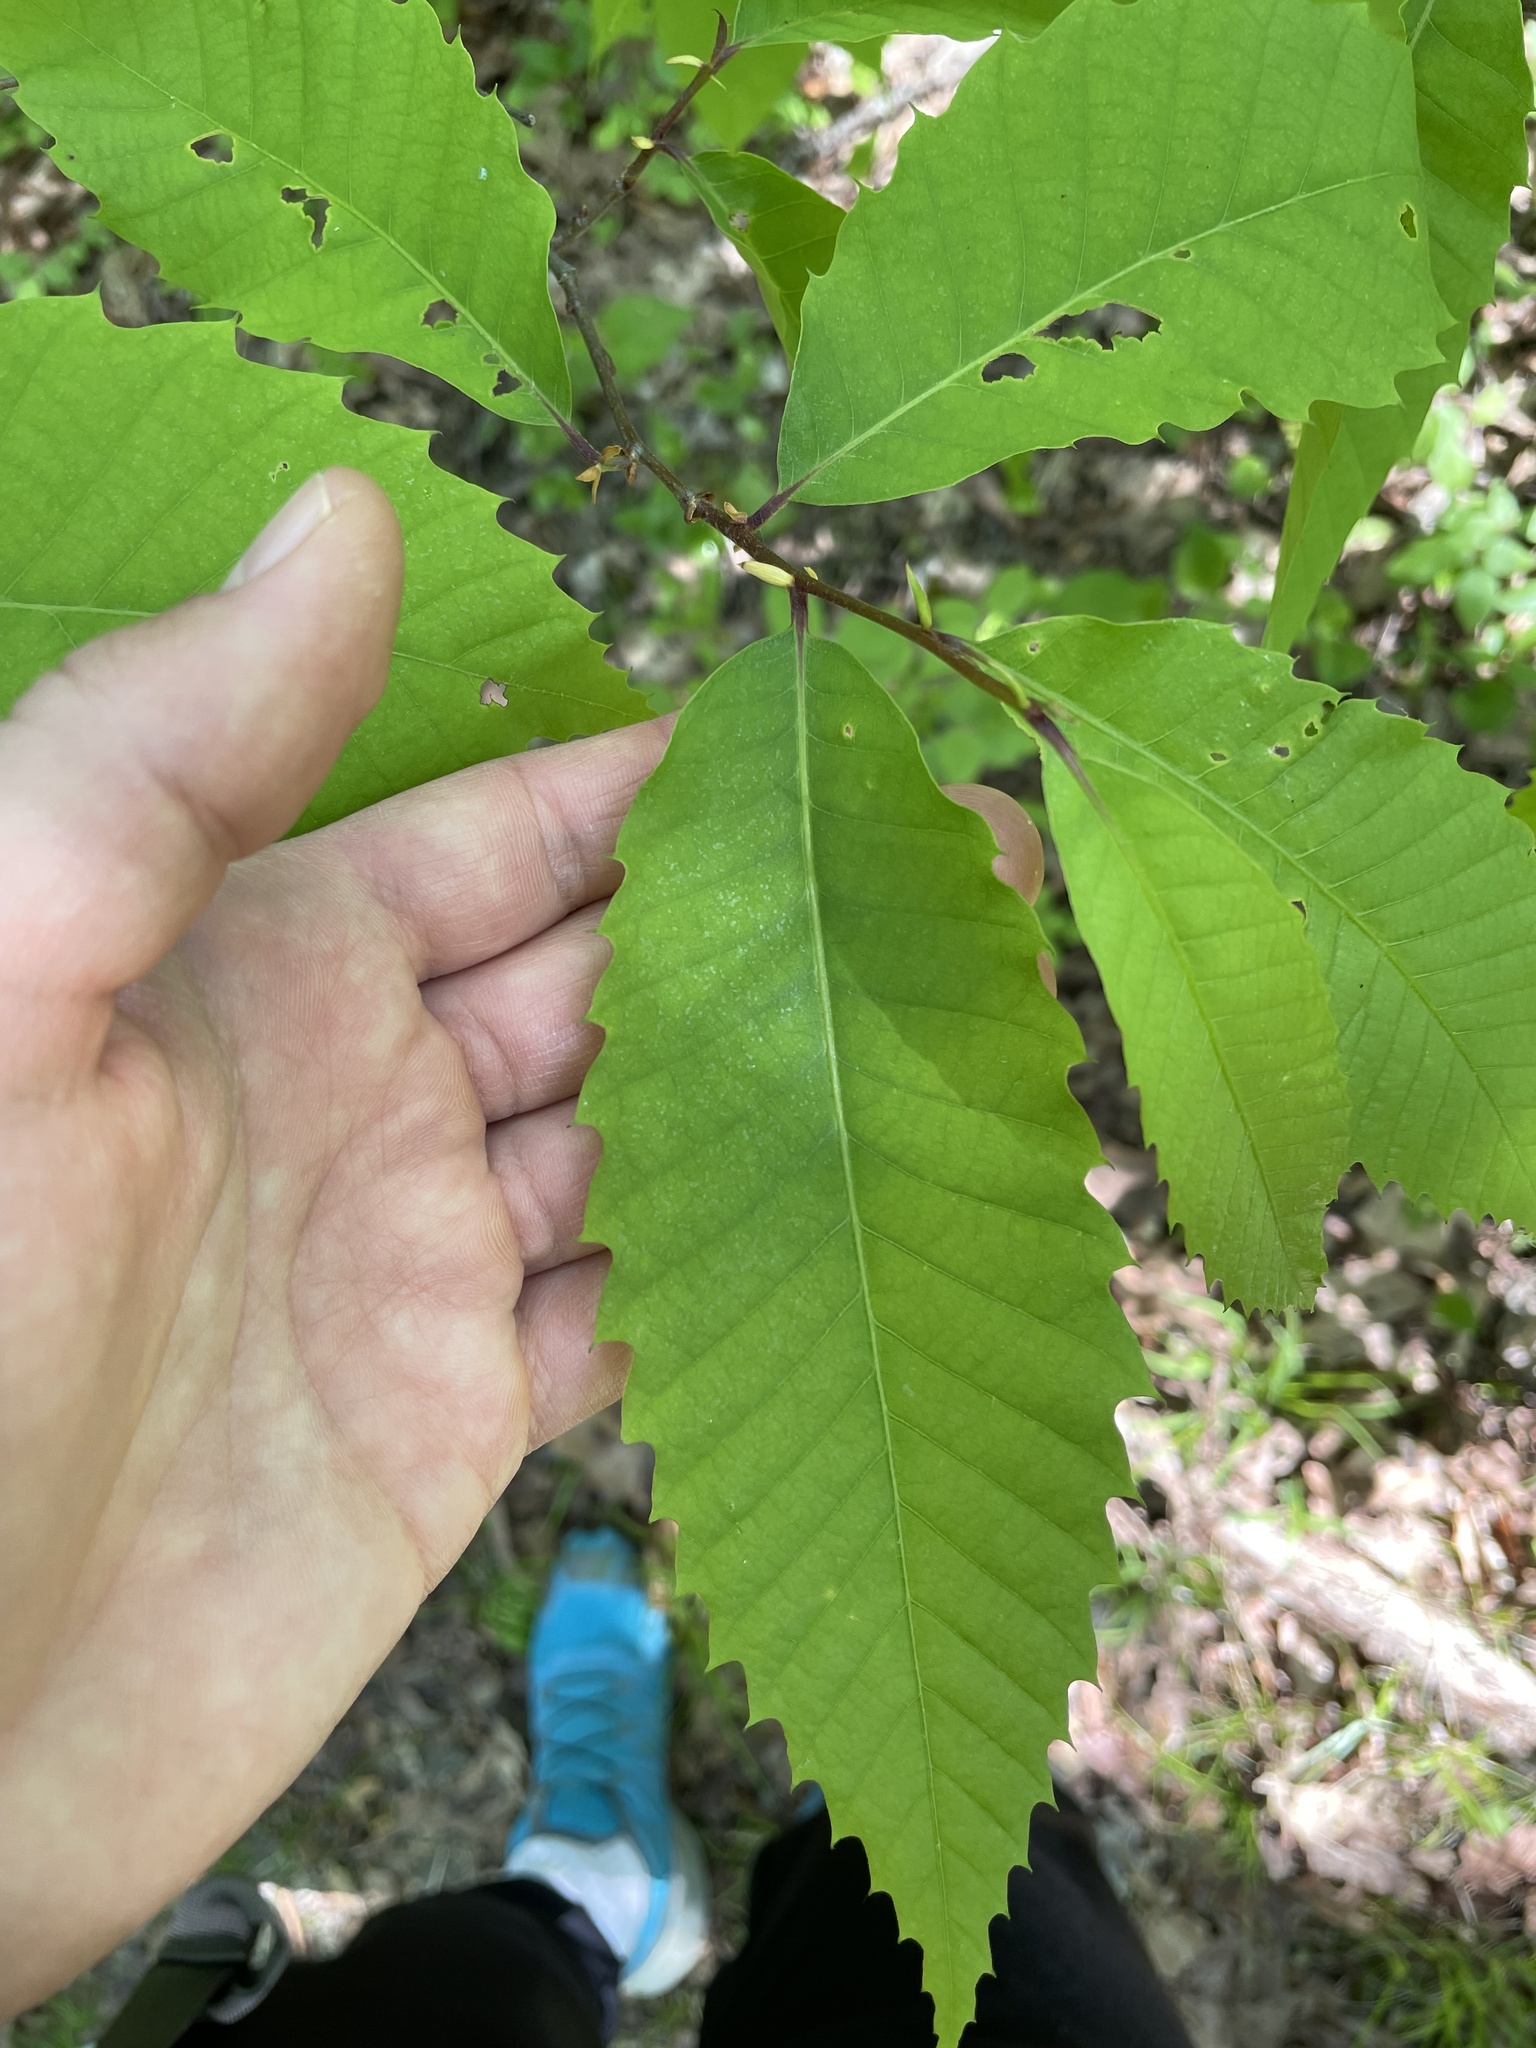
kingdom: Plantae
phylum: Tracheophyta
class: Magnoliopsida
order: Fagales
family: Fagaceae
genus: Castanea
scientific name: Castanea dentata
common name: American chestnut
